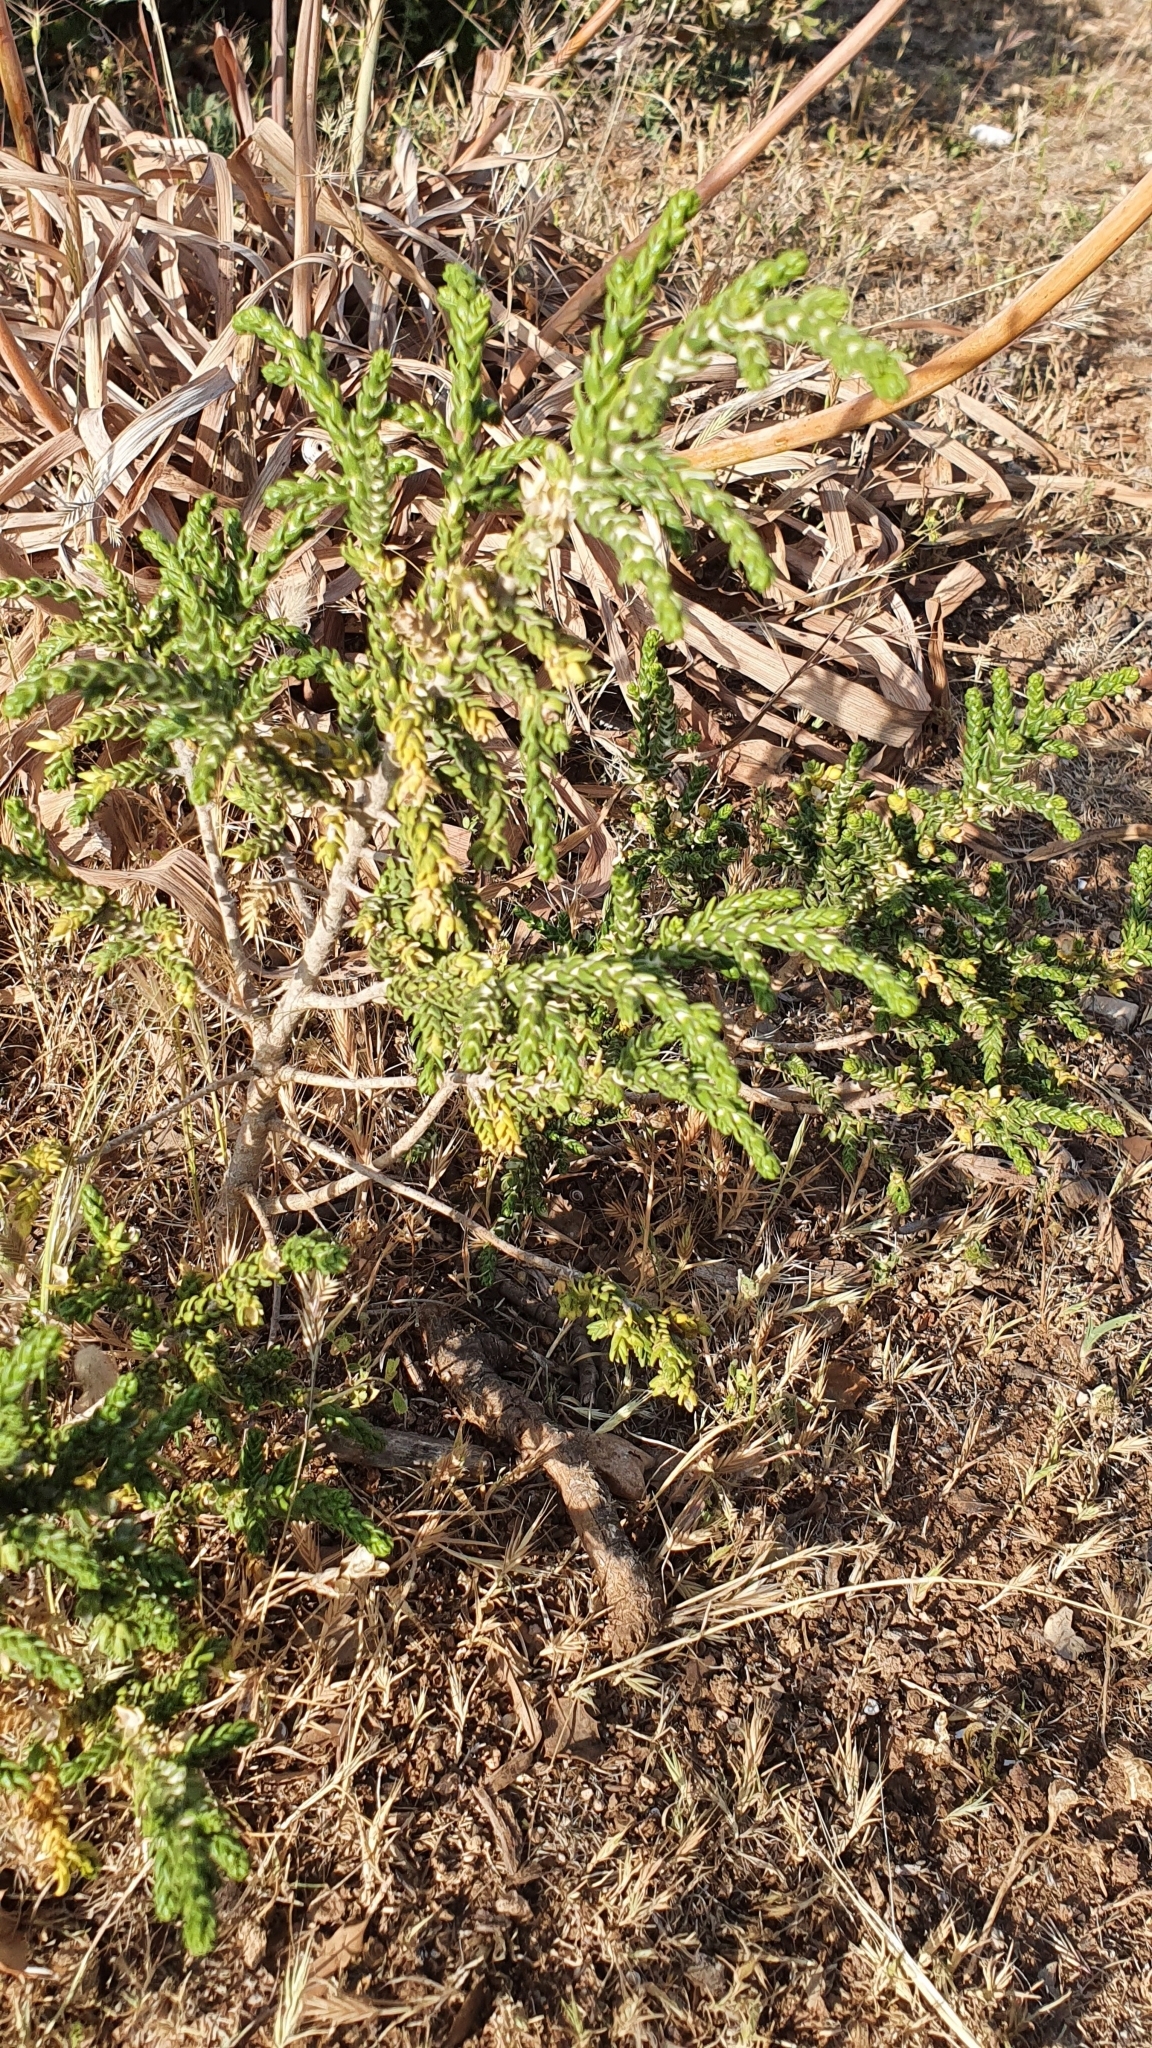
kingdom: Plantae
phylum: Tracheophyta
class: Magnoliopsida
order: Malvales
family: Thymelaeaceae
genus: Thymelaea
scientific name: Thymelaea hirsuta
